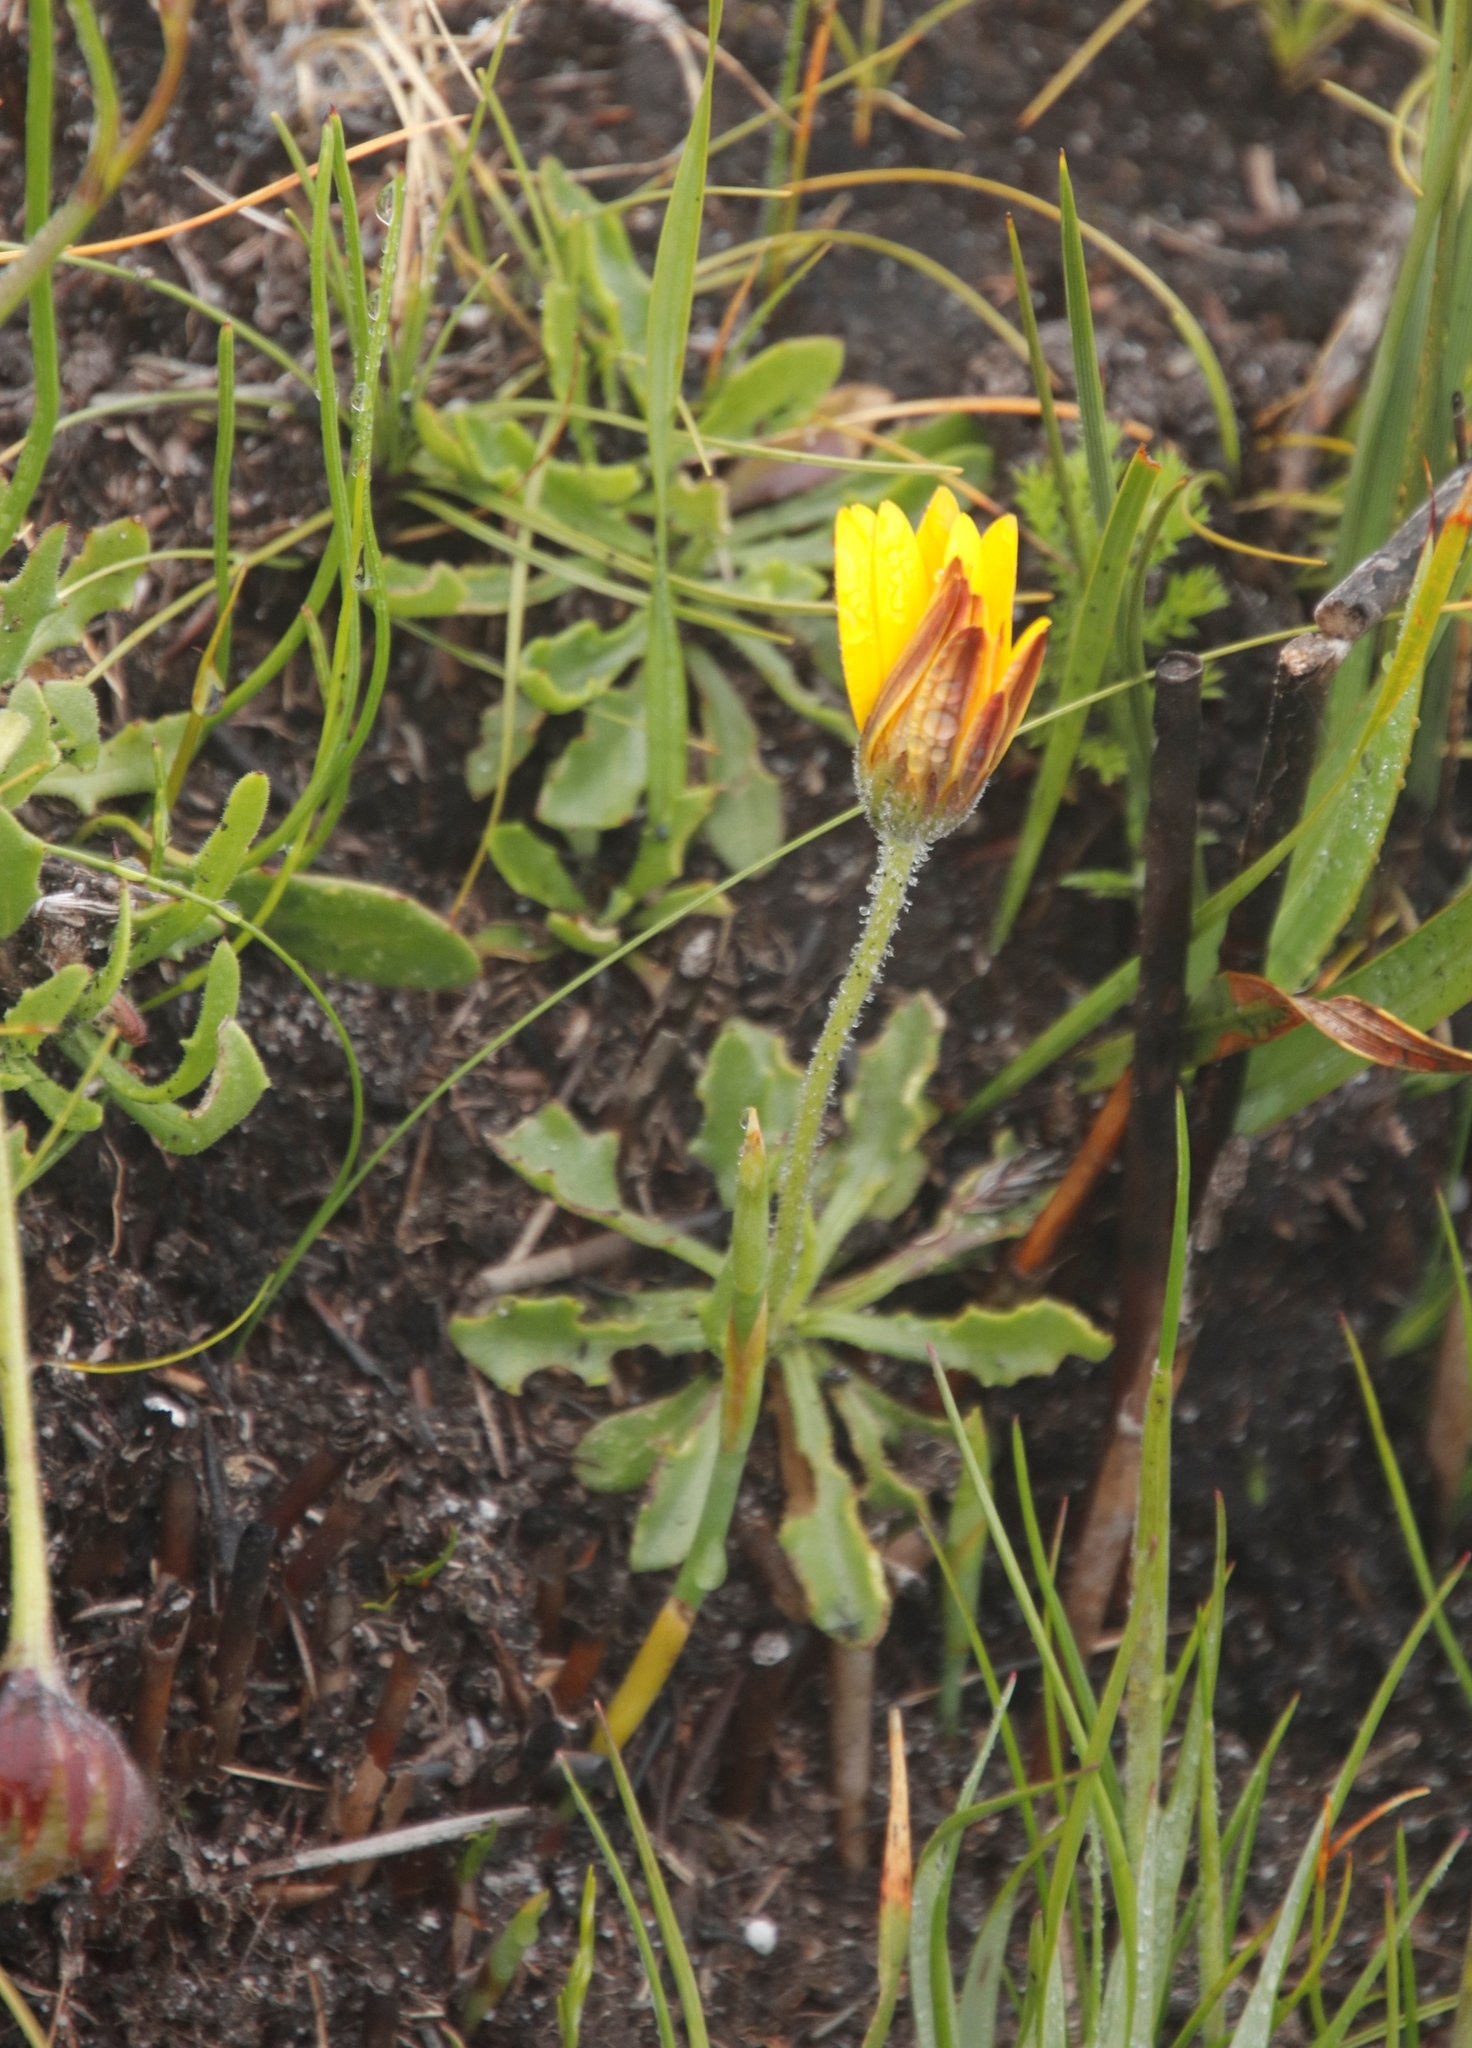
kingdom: Plantae
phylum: Tracheophyta
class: Magnoliopsida
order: Asterales
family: Asteraceae
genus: Dimorphotheca
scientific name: Dimorphotheca montana
